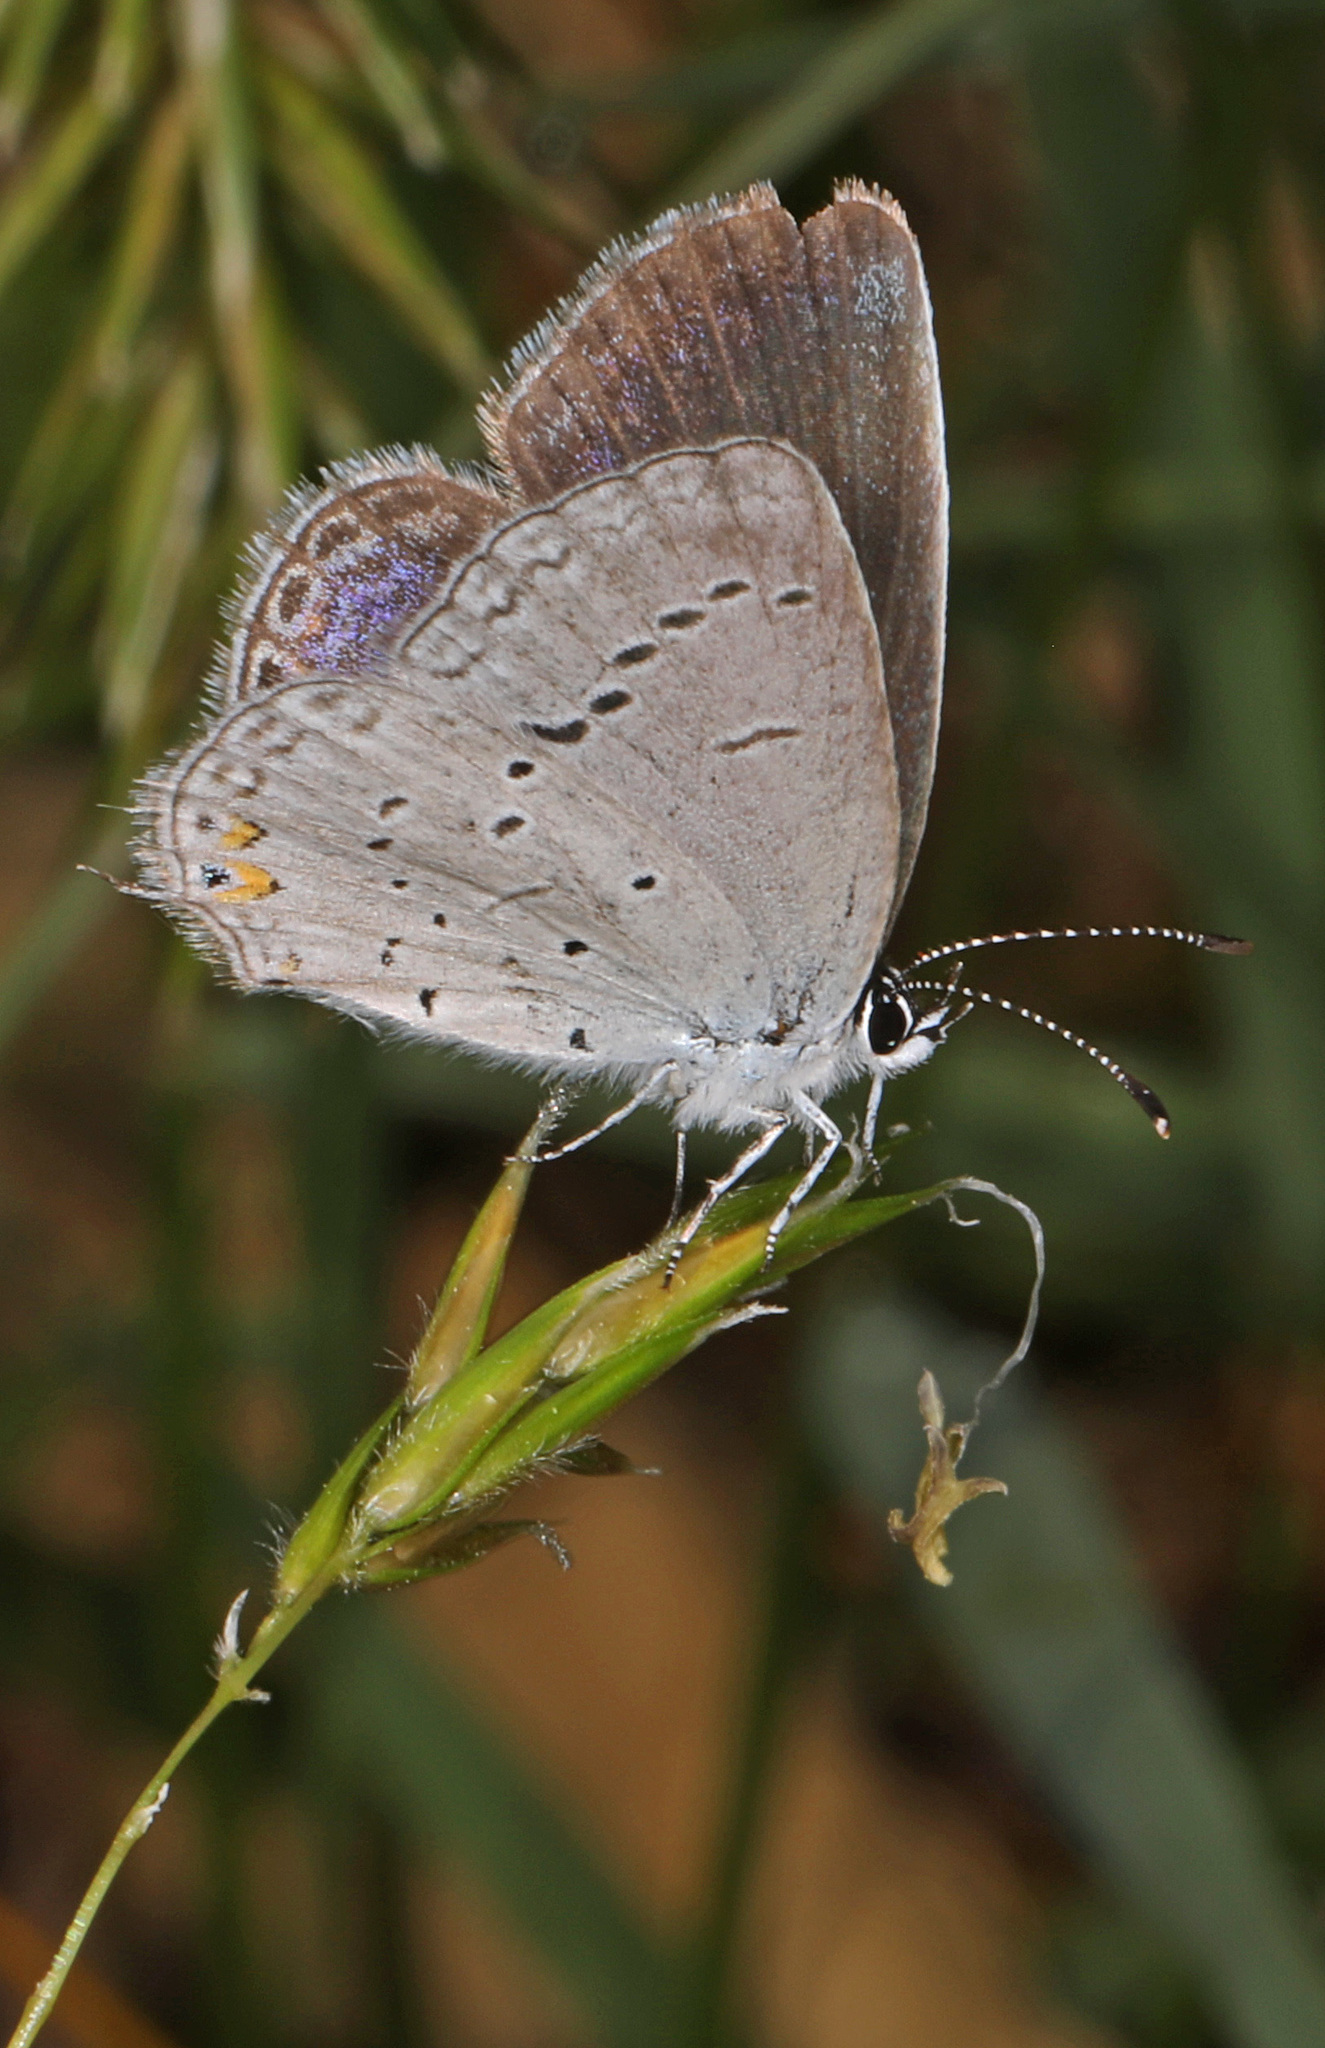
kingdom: Animalia
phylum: Arthropoda
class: Insecta
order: Lepidoptera
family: Lycaenidae
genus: Elkalyce
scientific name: Elkalyce comyntas
